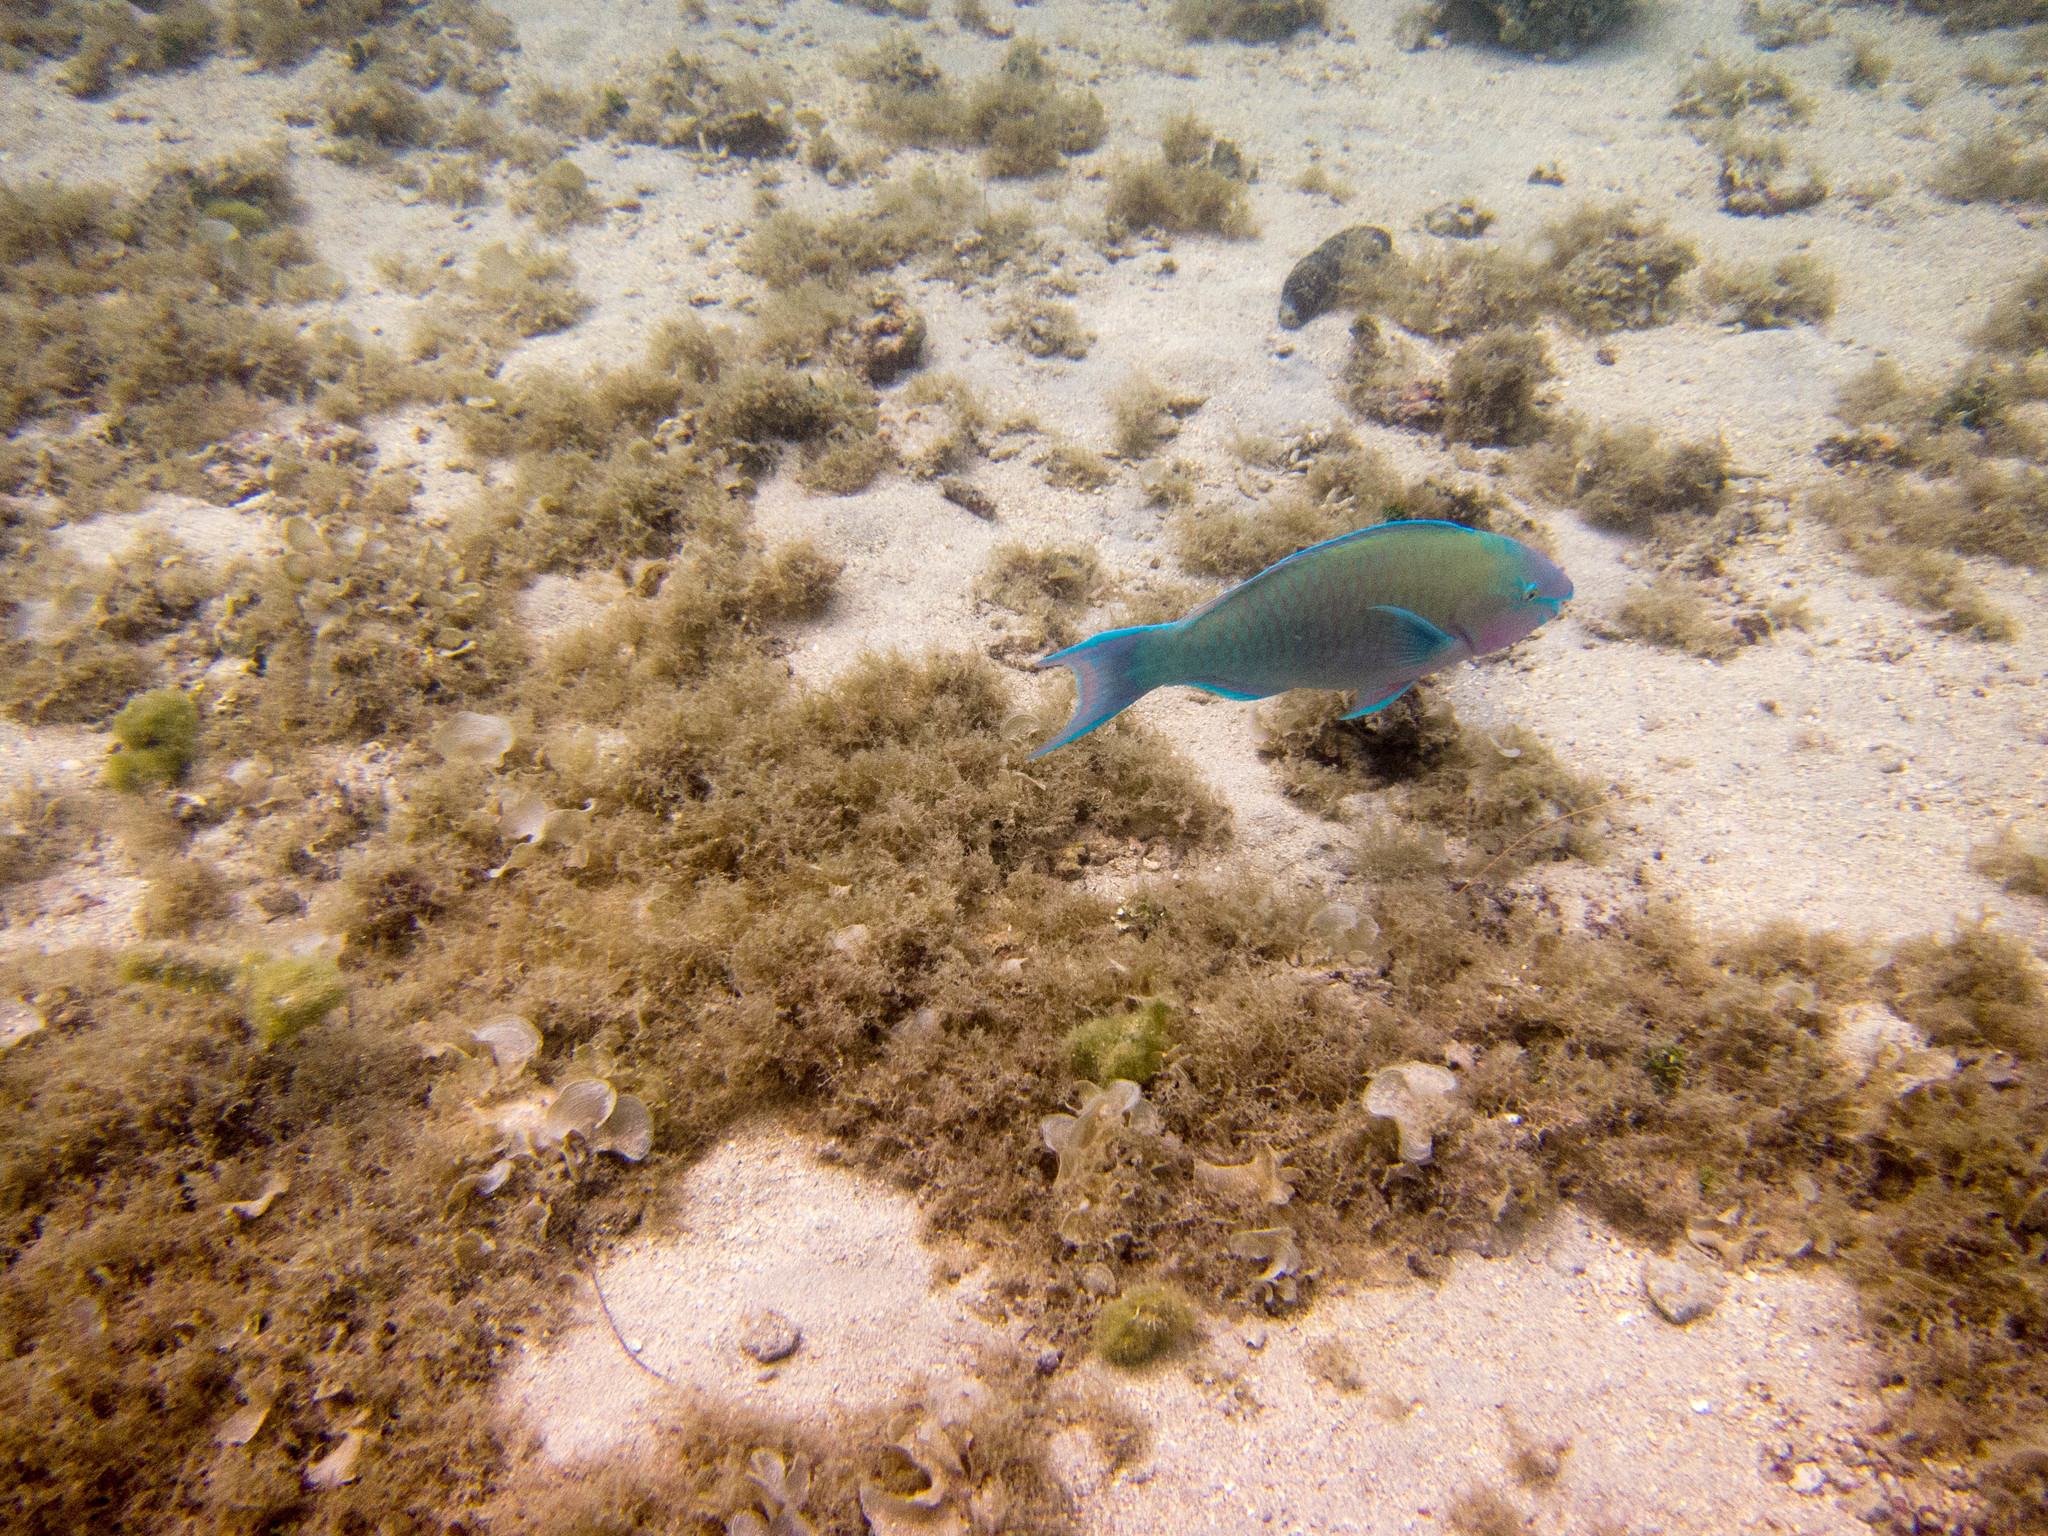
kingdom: Animalia
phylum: Chordata
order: Perciformes
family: Scaridae
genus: Scarus
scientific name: Scarus psittacus
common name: Palenose parrotfish
